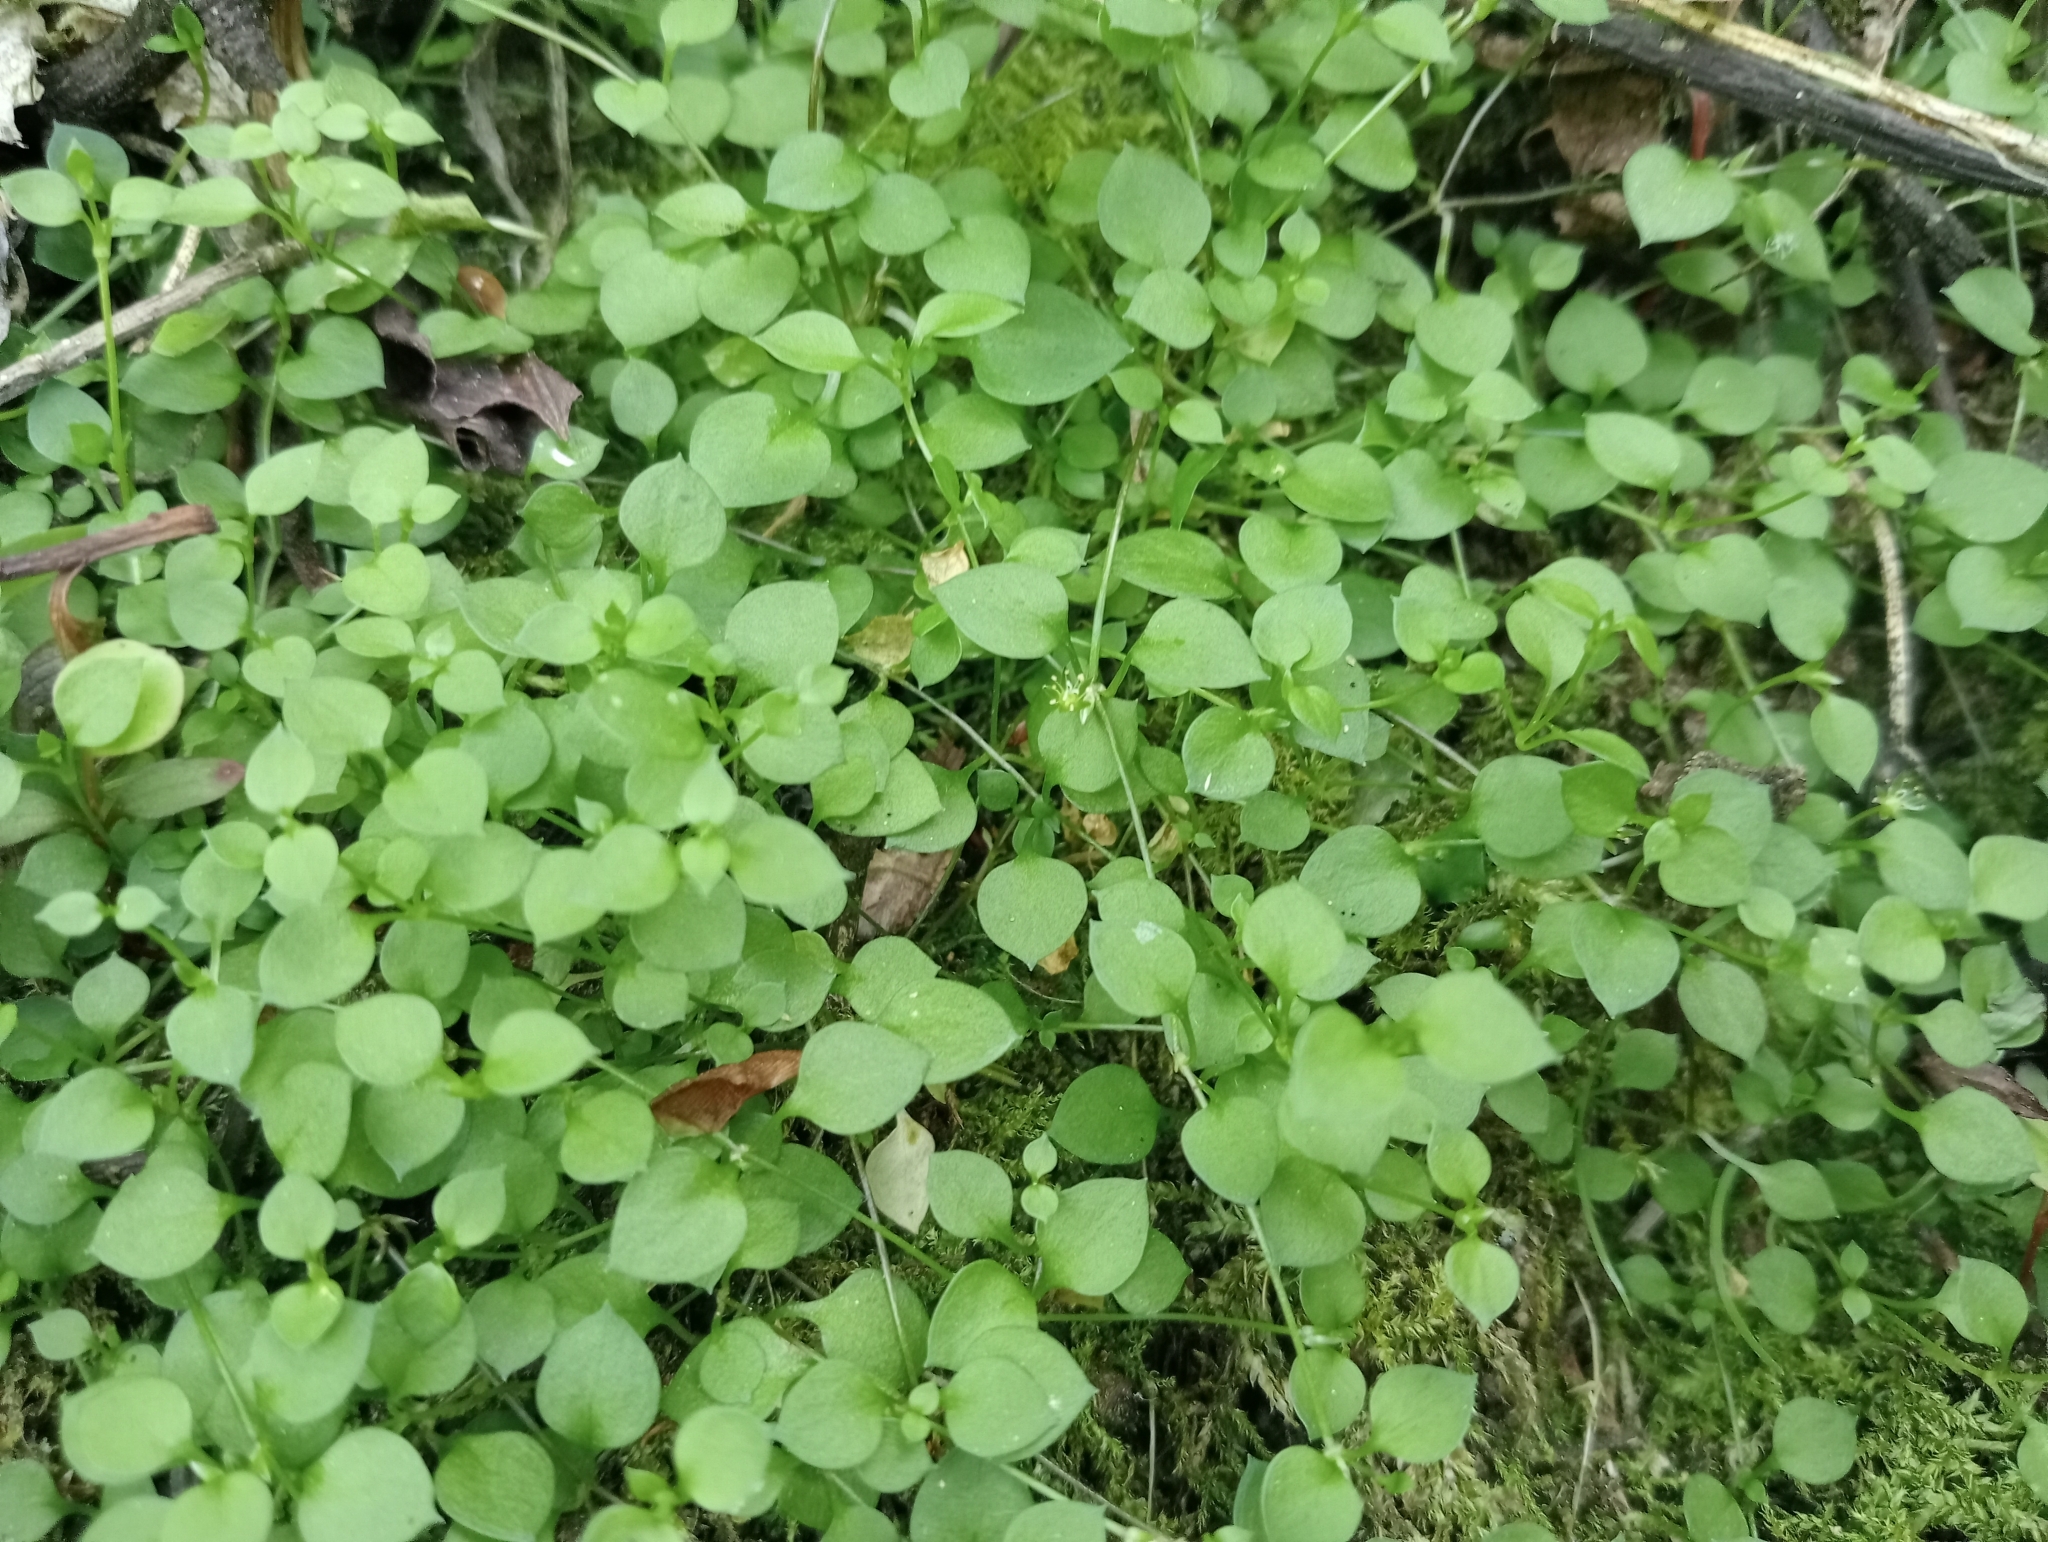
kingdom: Plantae
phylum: Tracheophyta
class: Magnoliopsida
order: Caryophyllales
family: Caryophyllaceae
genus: Stellaria
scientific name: Stellaria parviflora
